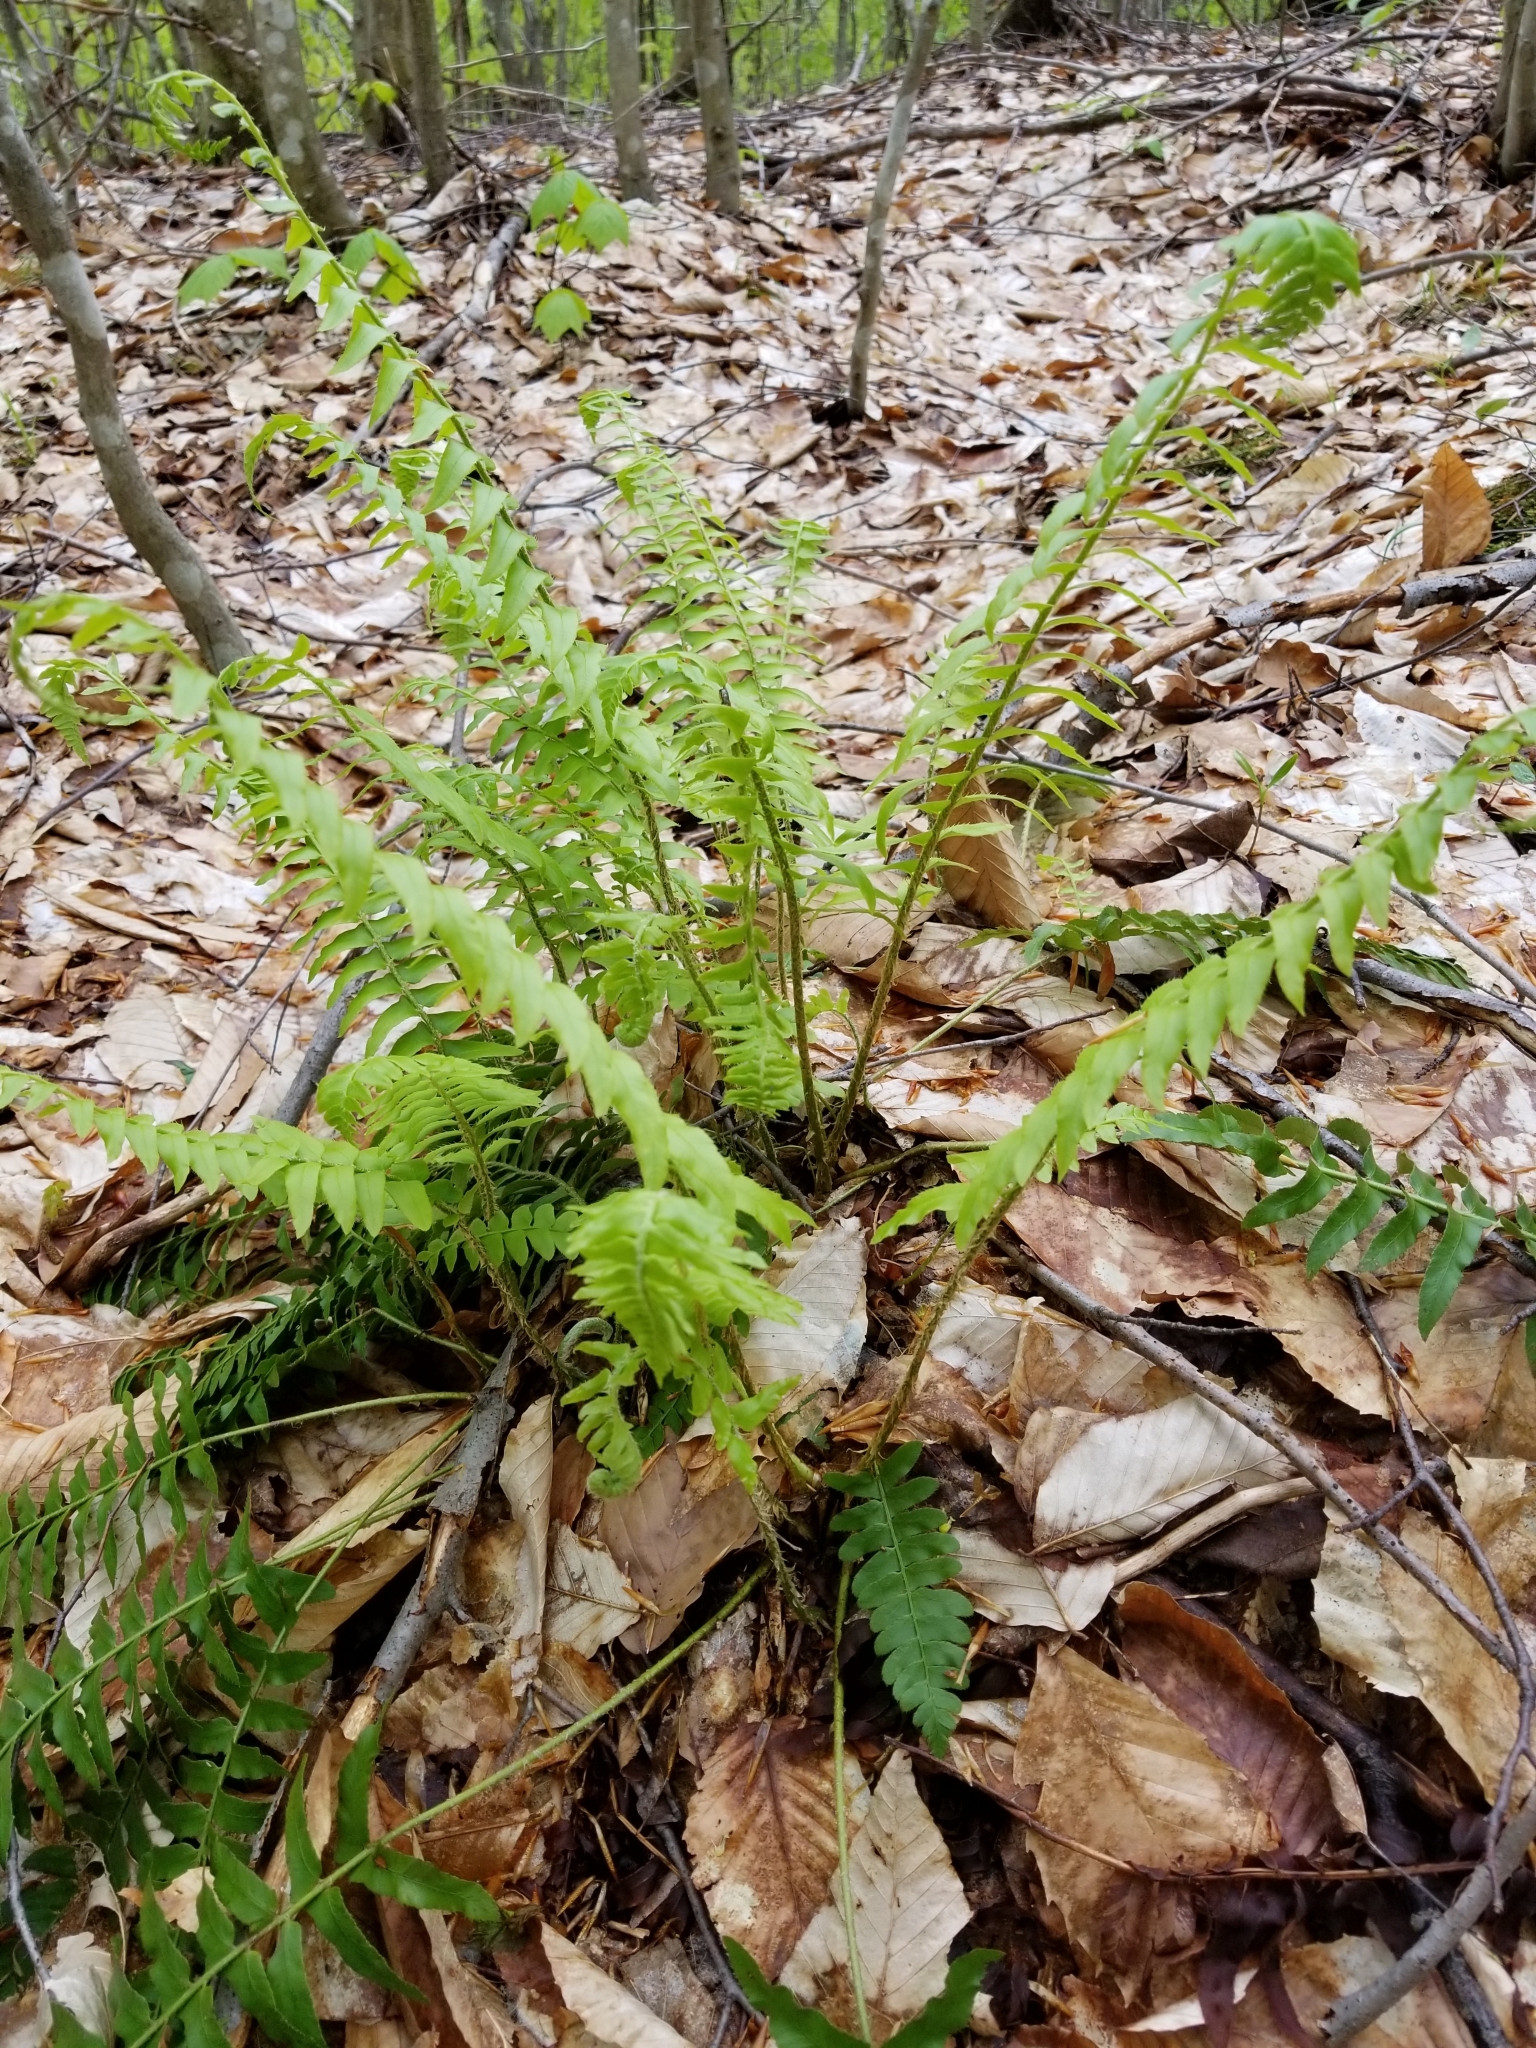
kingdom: Plantae
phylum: Tracheophyta
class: Polypodiopsida
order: Polypodiales
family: Dryopteridaceae
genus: Polystichum
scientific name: Polystichum acrostichoides
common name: Christmas fern
